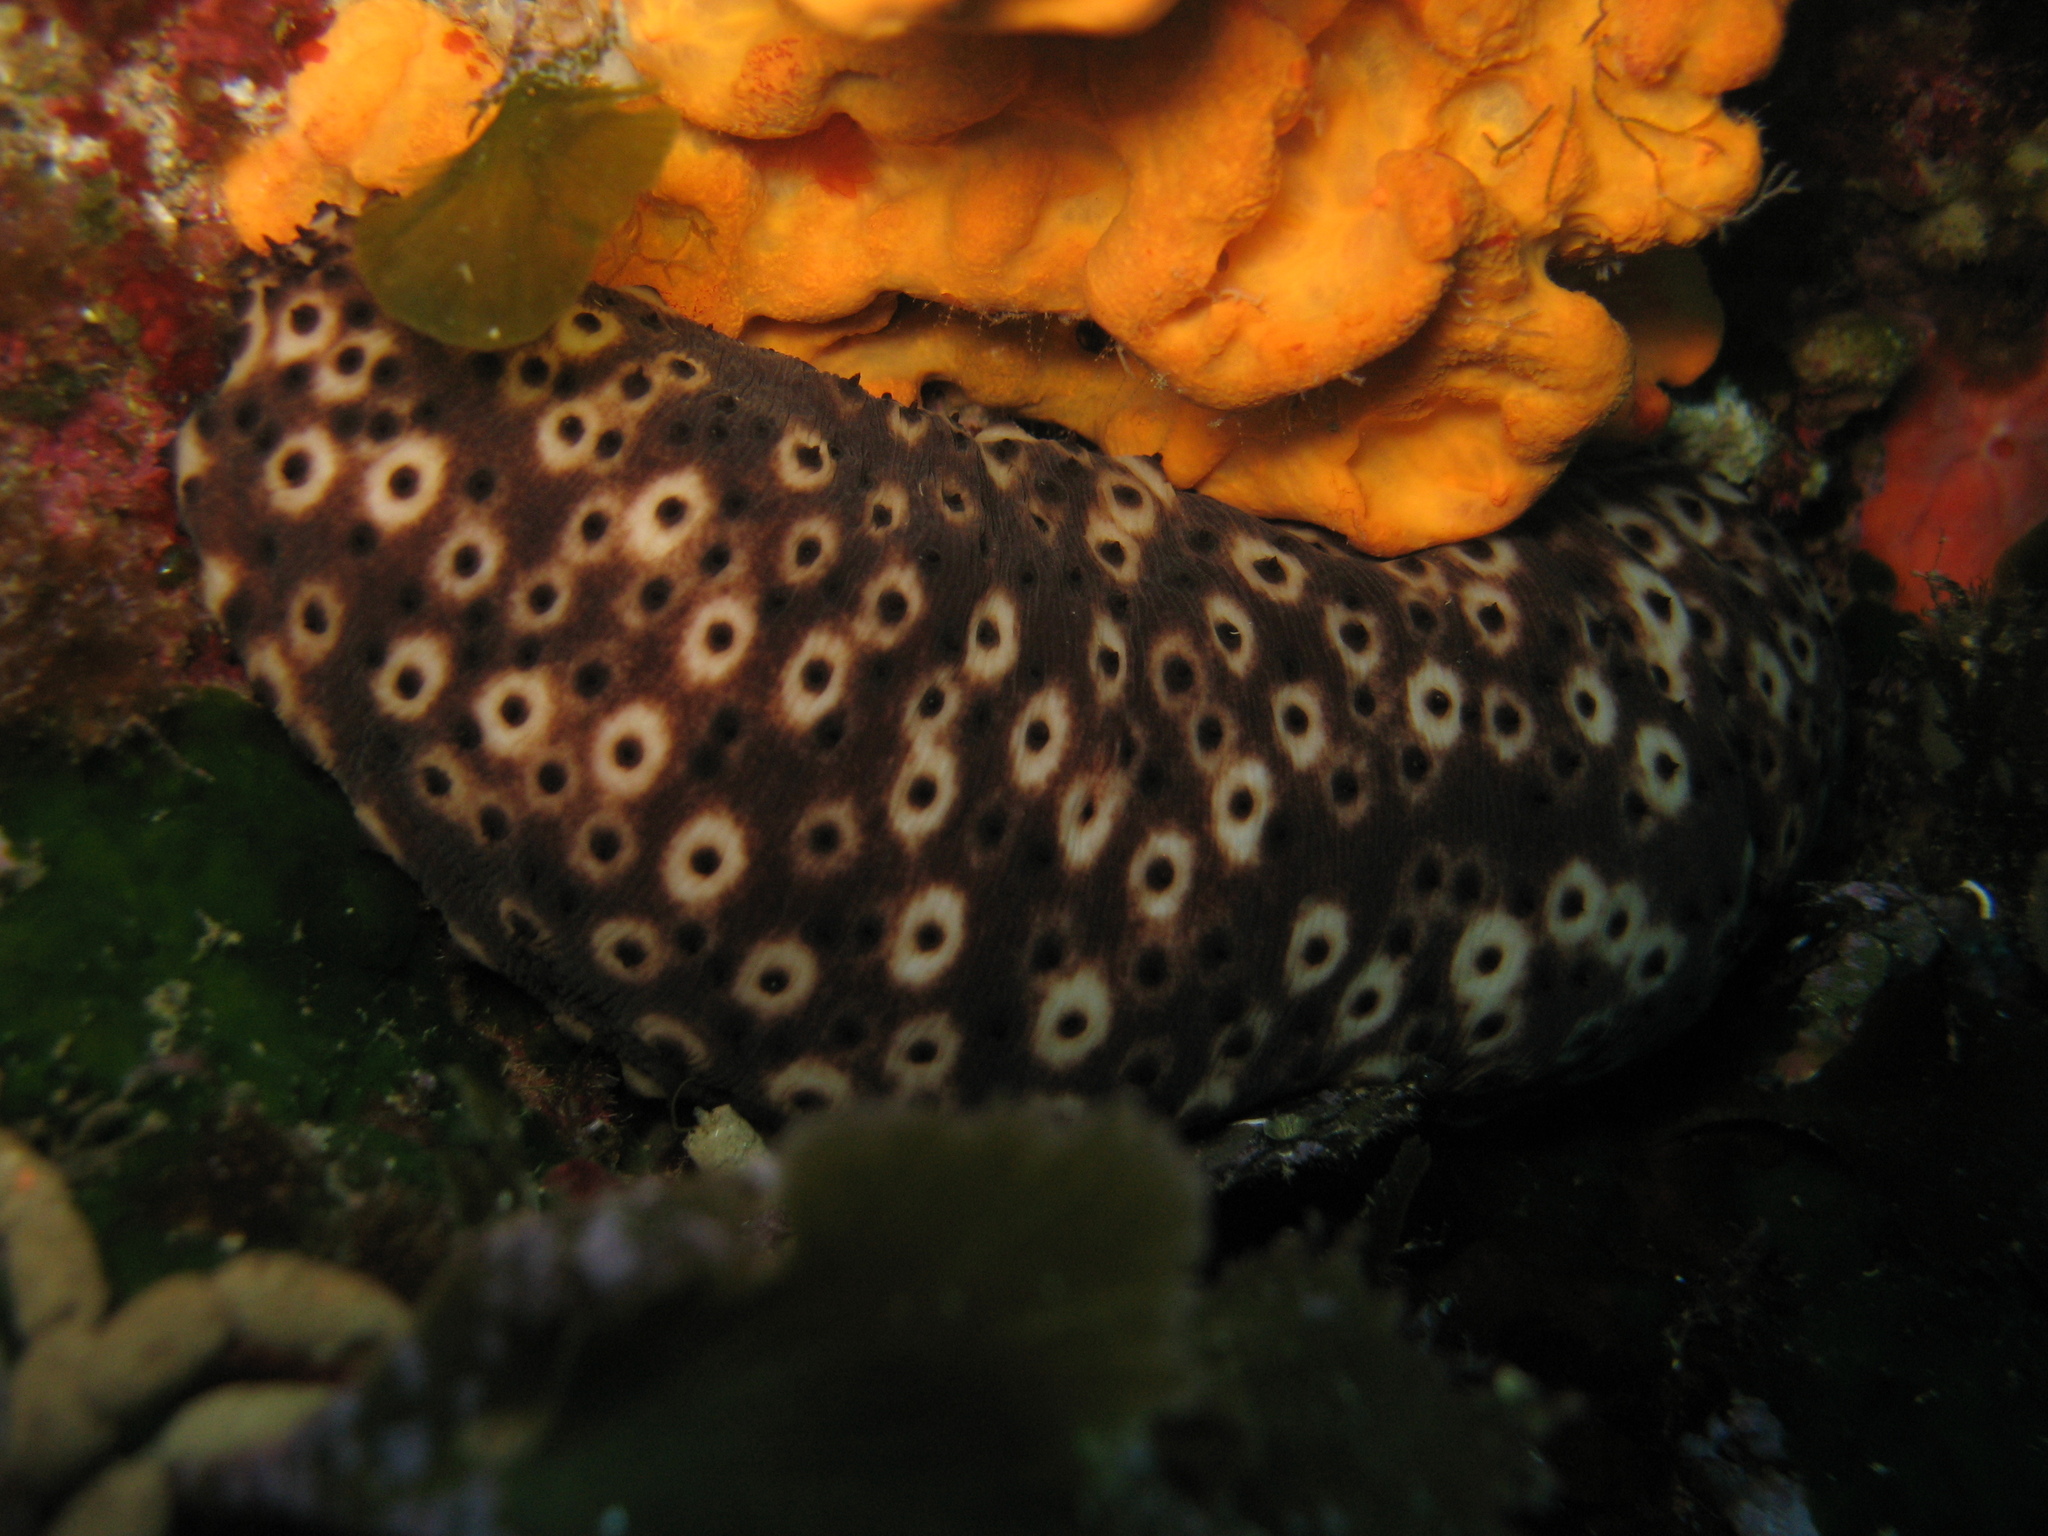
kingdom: Animalia
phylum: Echinodermata
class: Holothuroidea
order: Holothuriida
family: Holothuriidae
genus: Holothuria
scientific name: Holothuria sanctori
